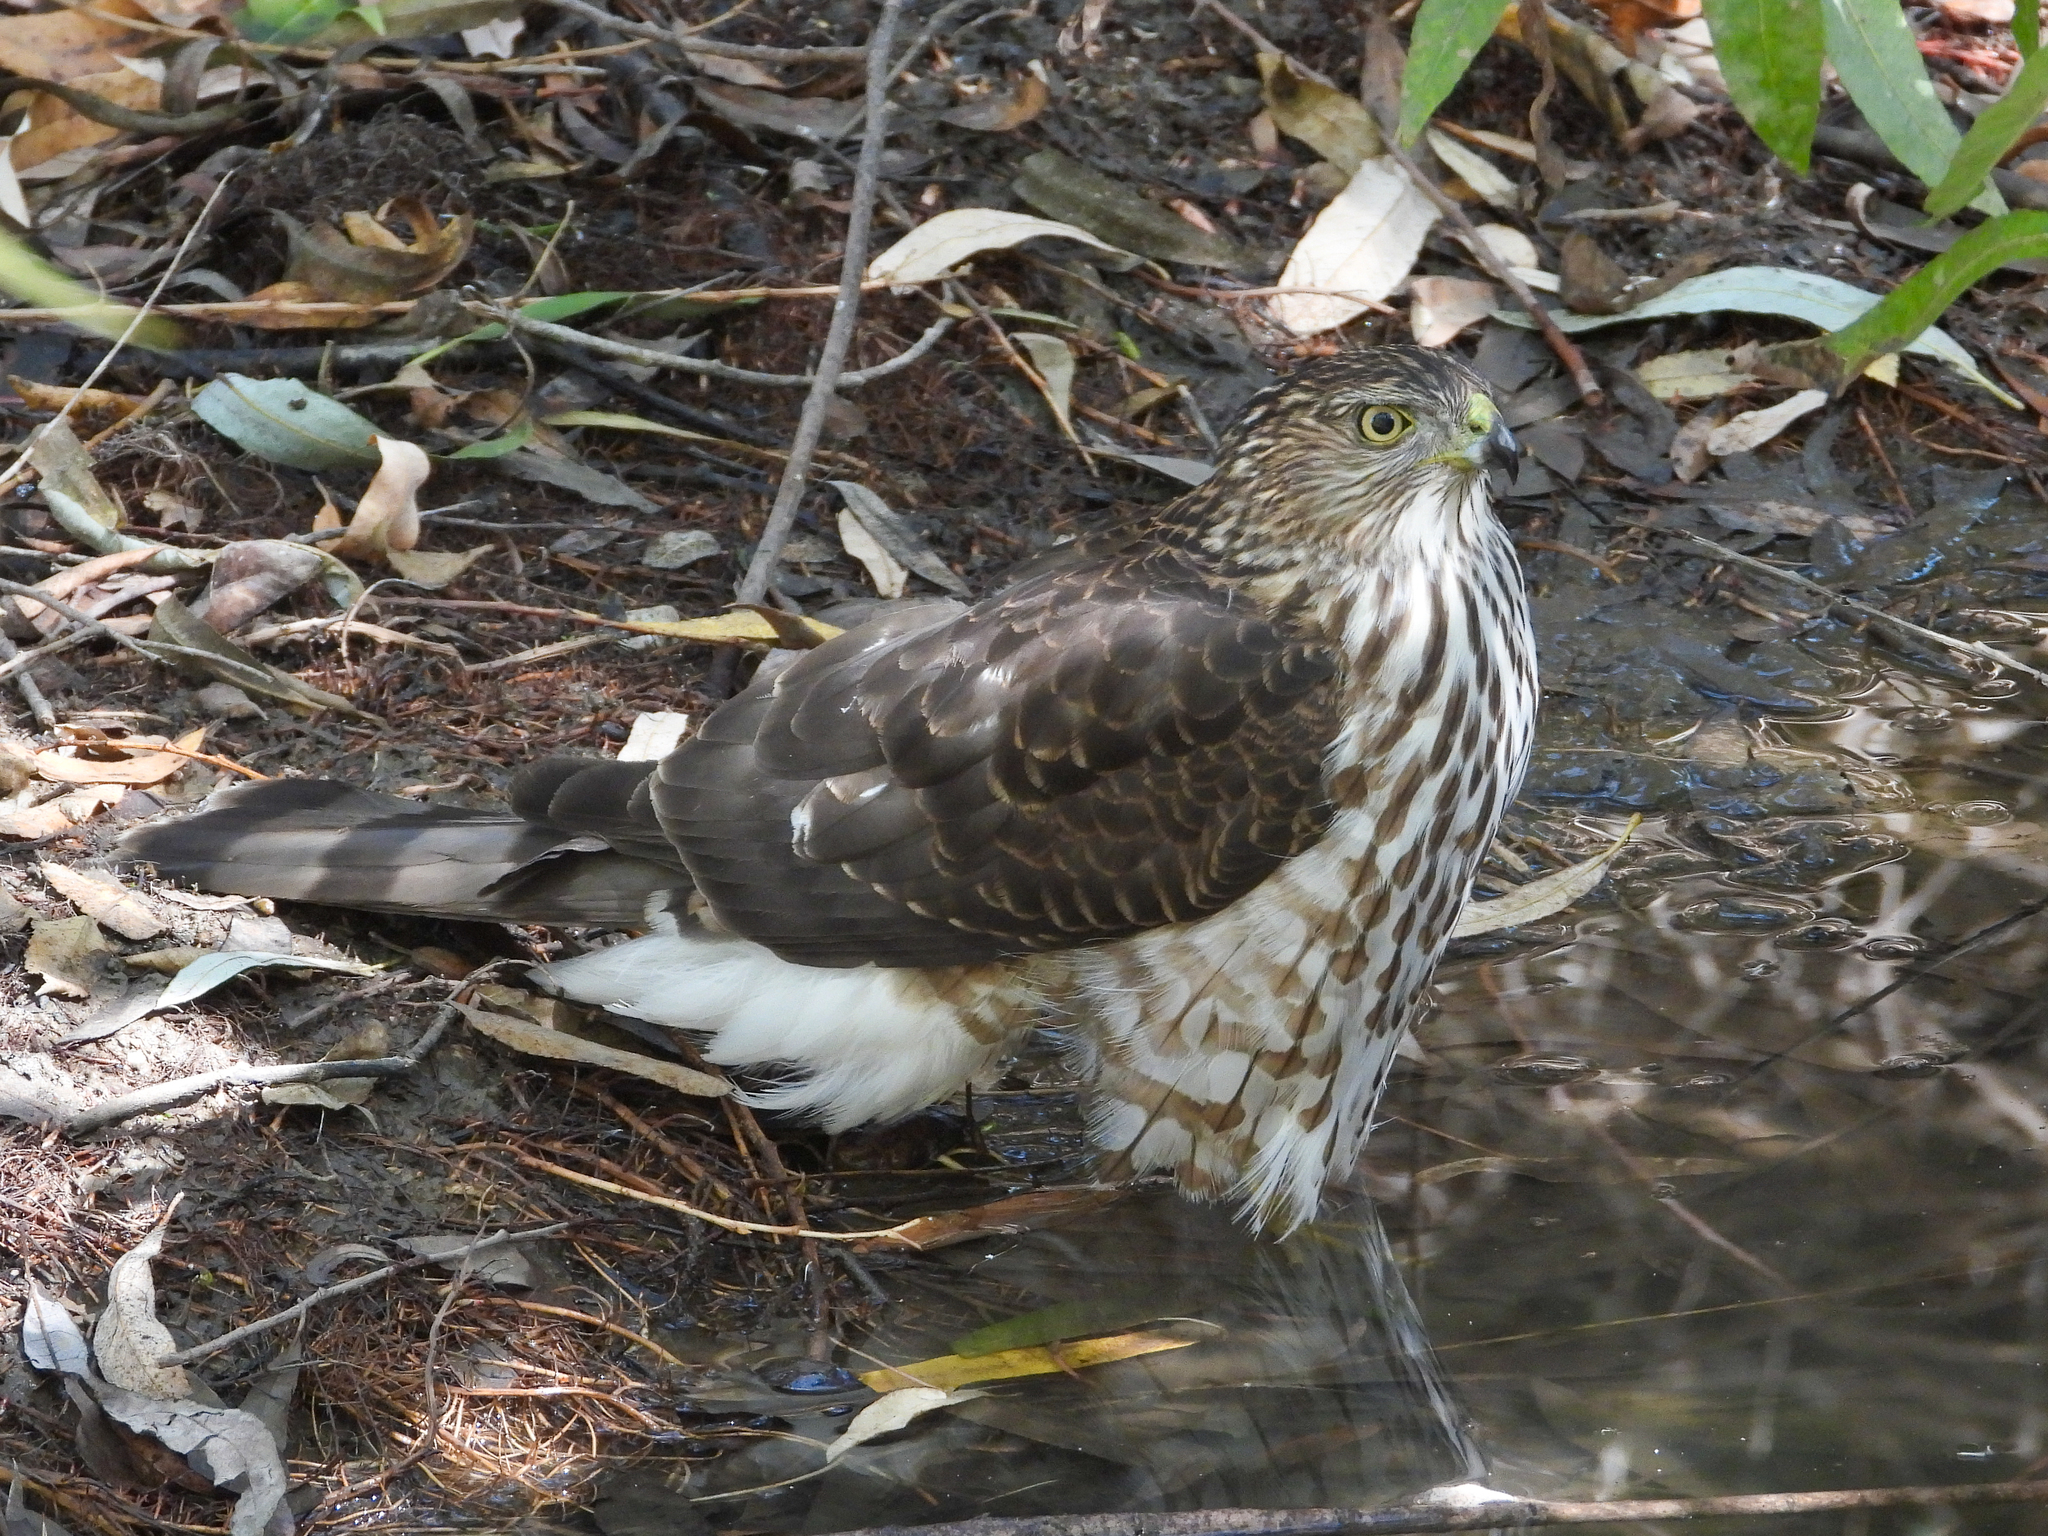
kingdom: Animalia
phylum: Chordata
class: Aves
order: Accipitriformes
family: Accipitridae
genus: Accipiter
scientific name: Accipiter cooperii
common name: Cooper's hawk
